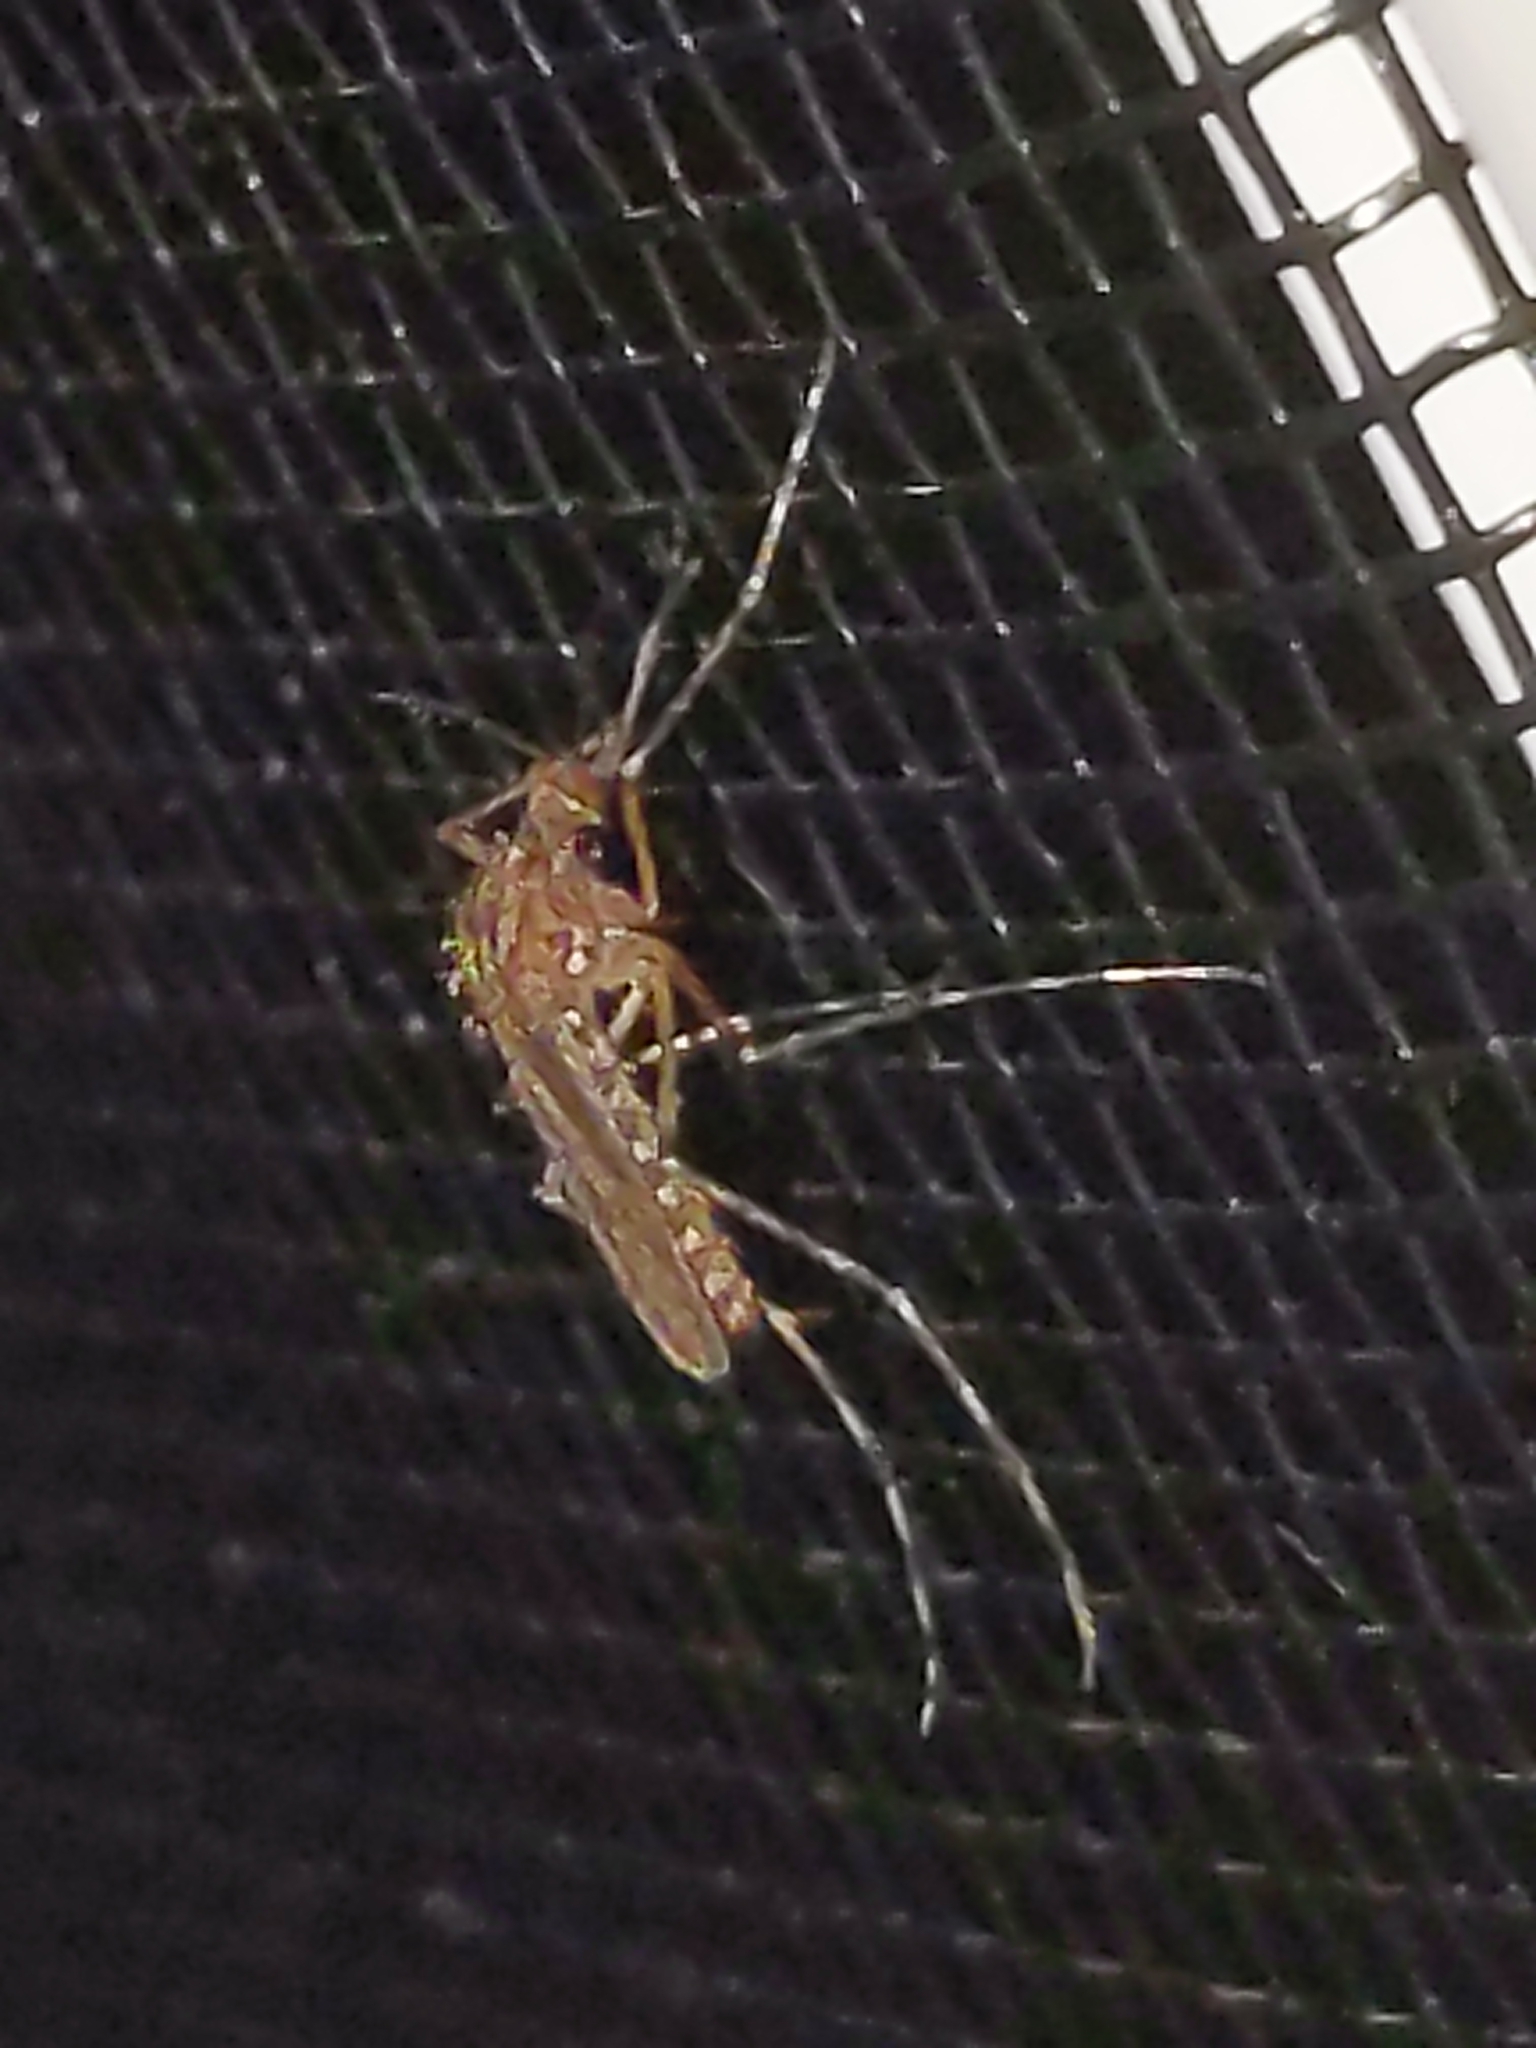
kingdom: Animalia
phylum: Arthropoda
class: Insecta
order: Diptera
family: Culicidae
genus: Coquillettidia
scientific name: Coquillettidia perturbans
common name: Cattail mosquito
